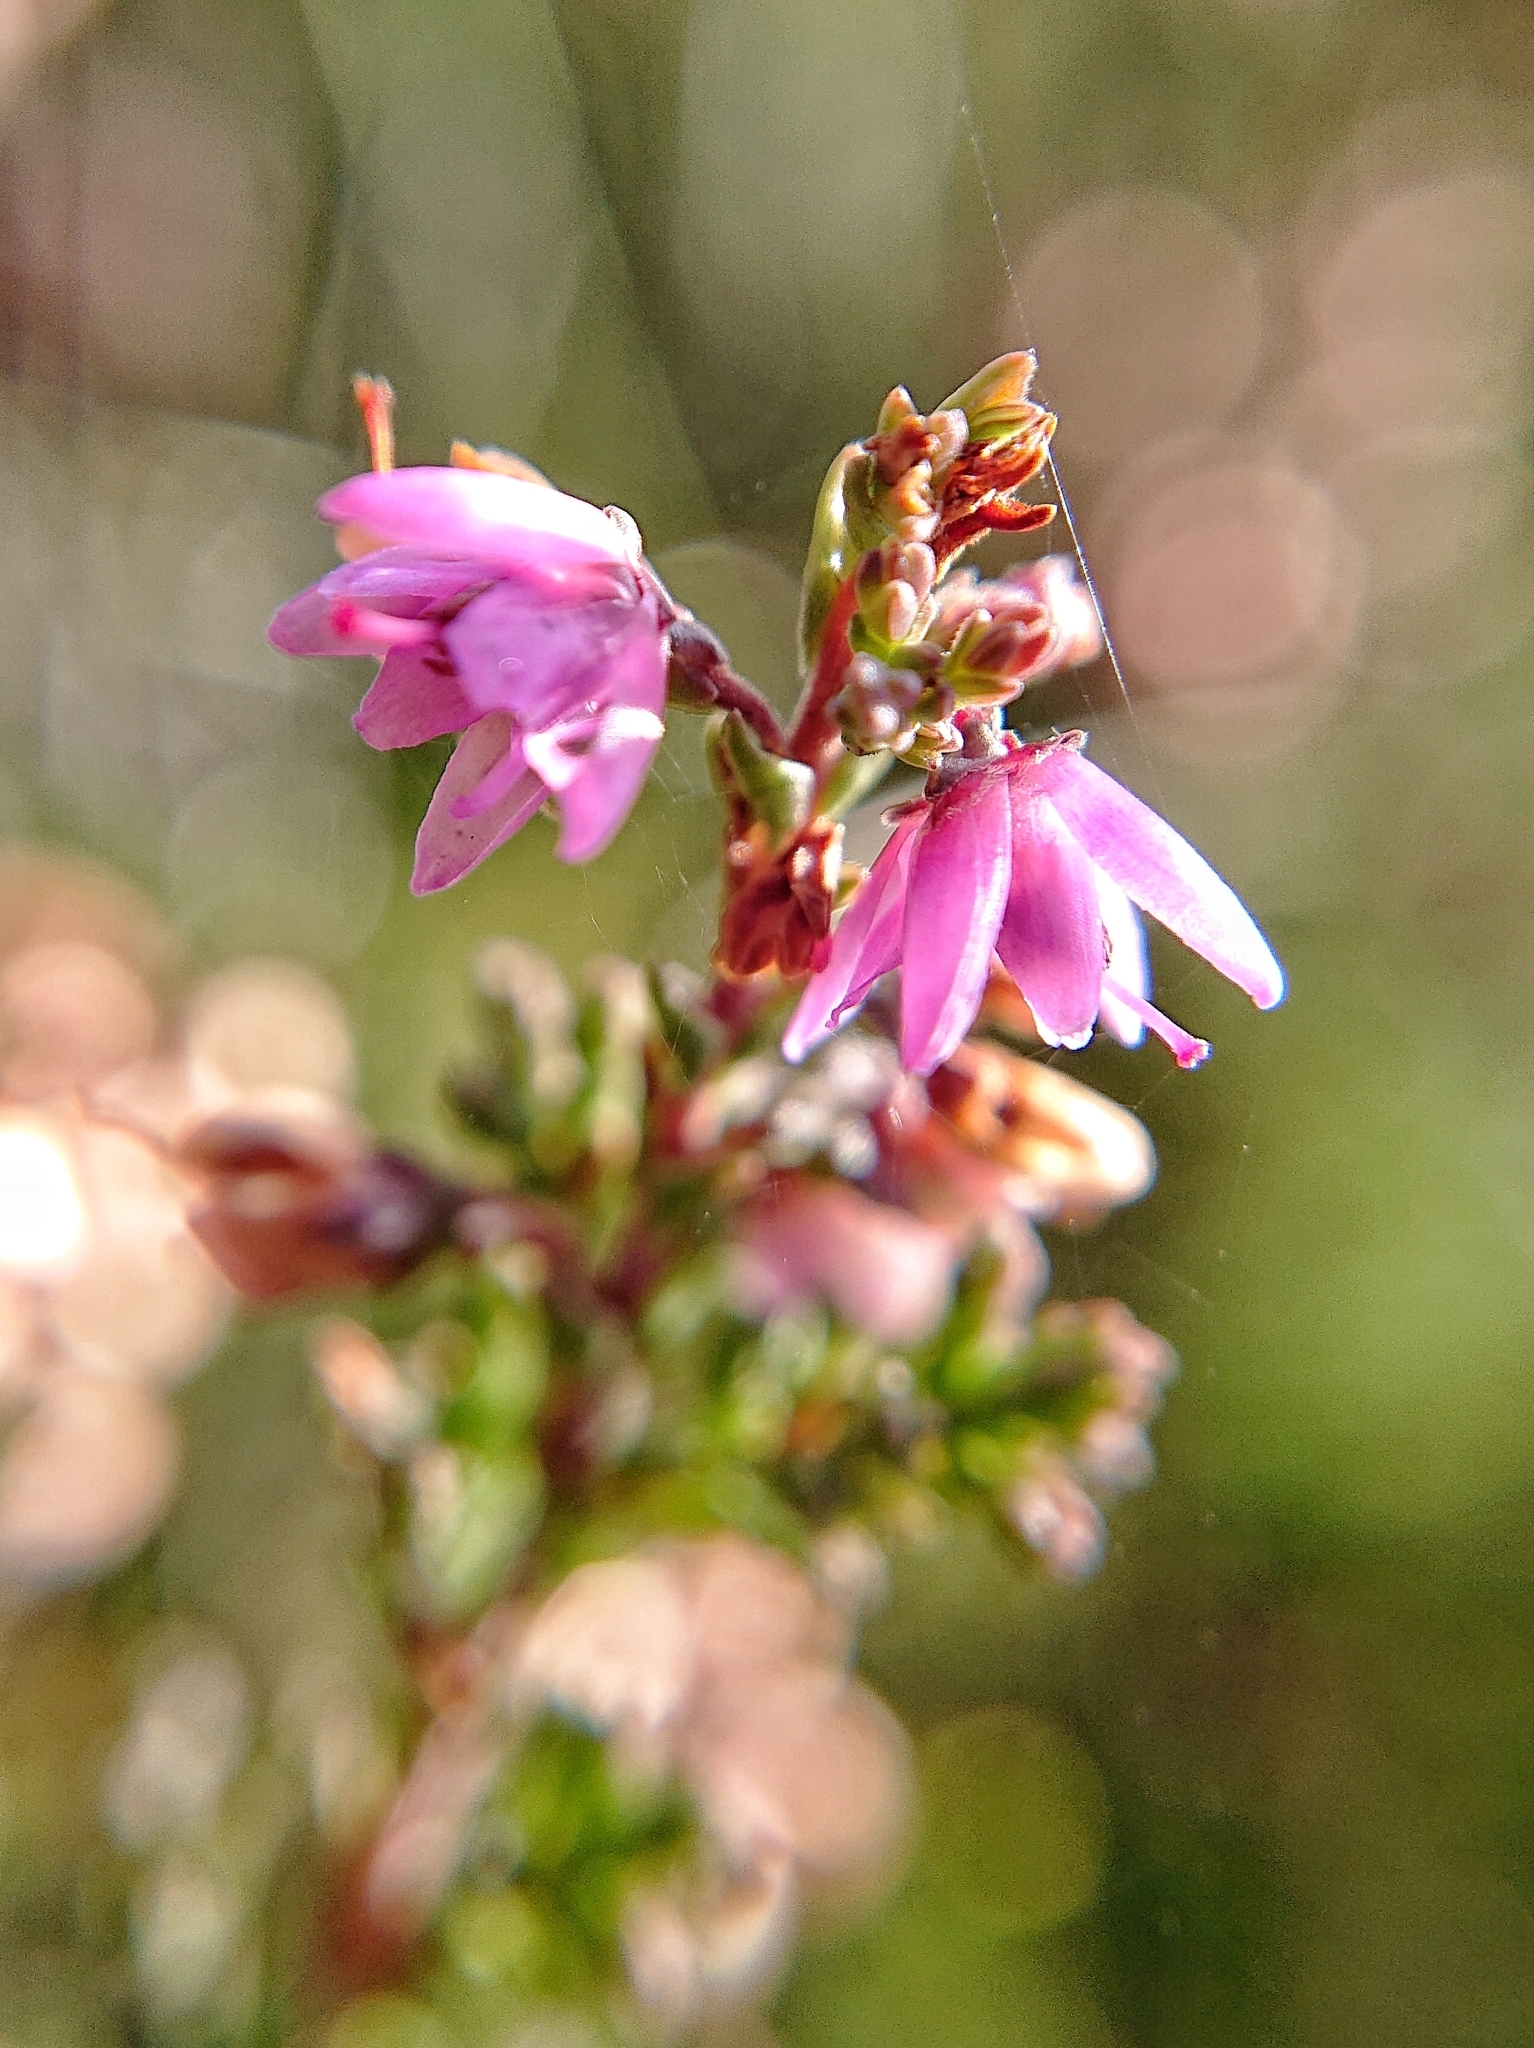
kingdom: Plantae
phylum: Tracheophyta
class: Magnoliopsida
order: Ericales
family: Ericaceae
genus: Calluna
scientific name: Calluna vulgaris
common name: Heather
